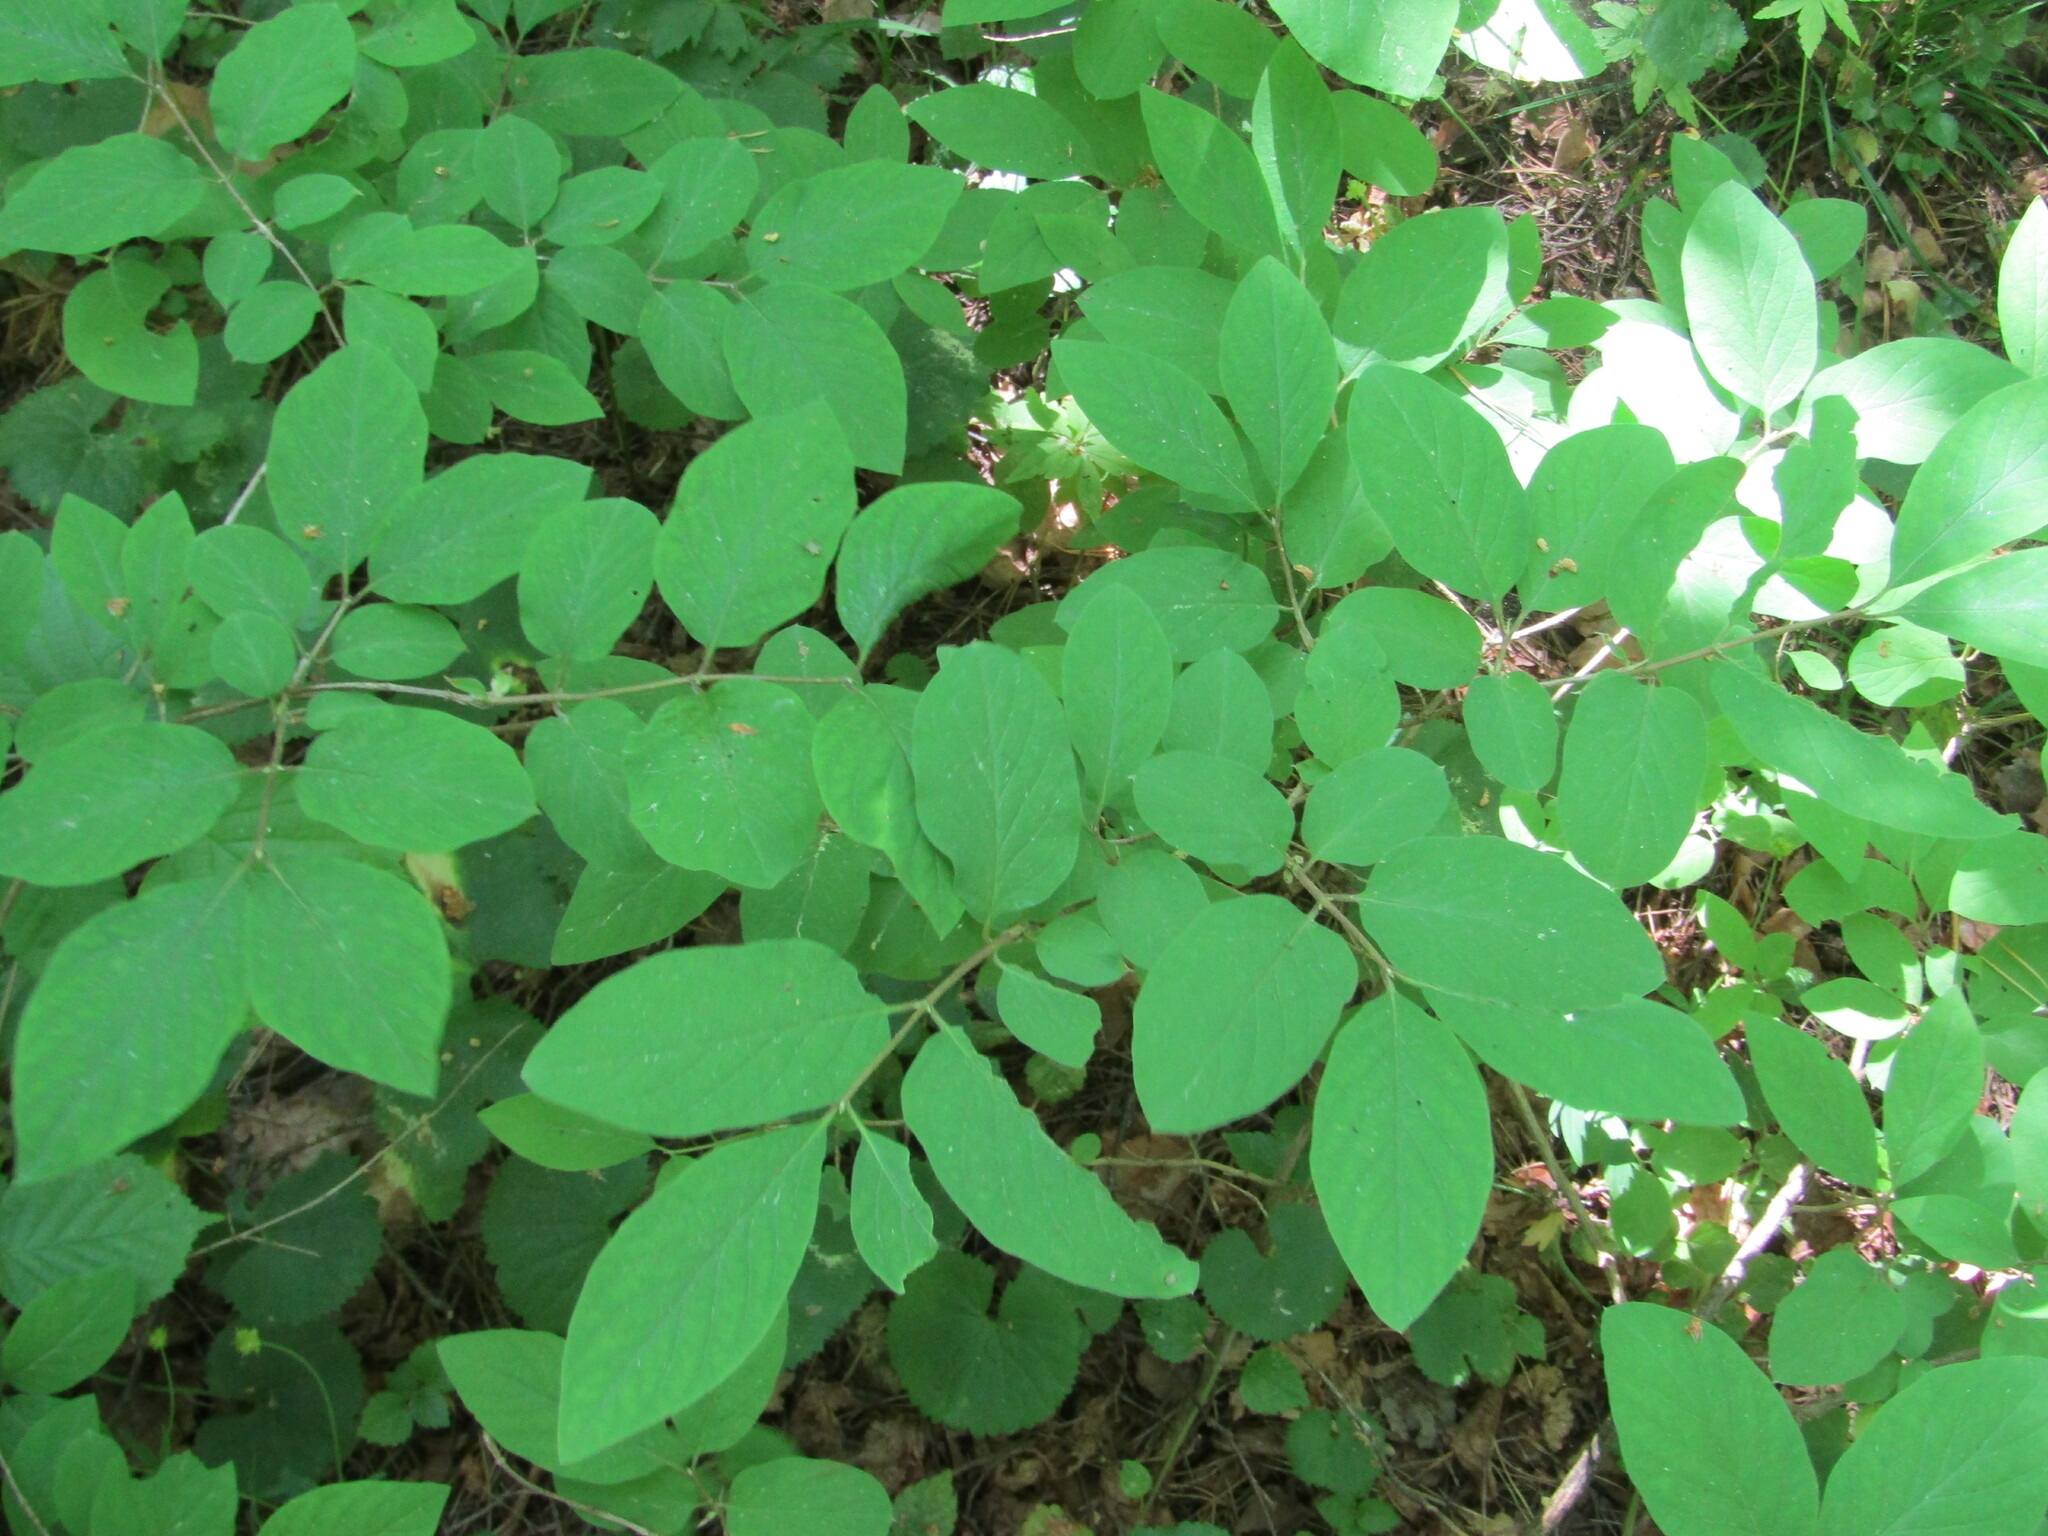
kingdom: Plantae
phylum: Tracheophyta
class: Magnoliopsida
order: Dipsacales
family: Caprifoliaceae
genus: Lonicera
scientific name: Lonicera xylosteum
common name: Fly honeysuckle
